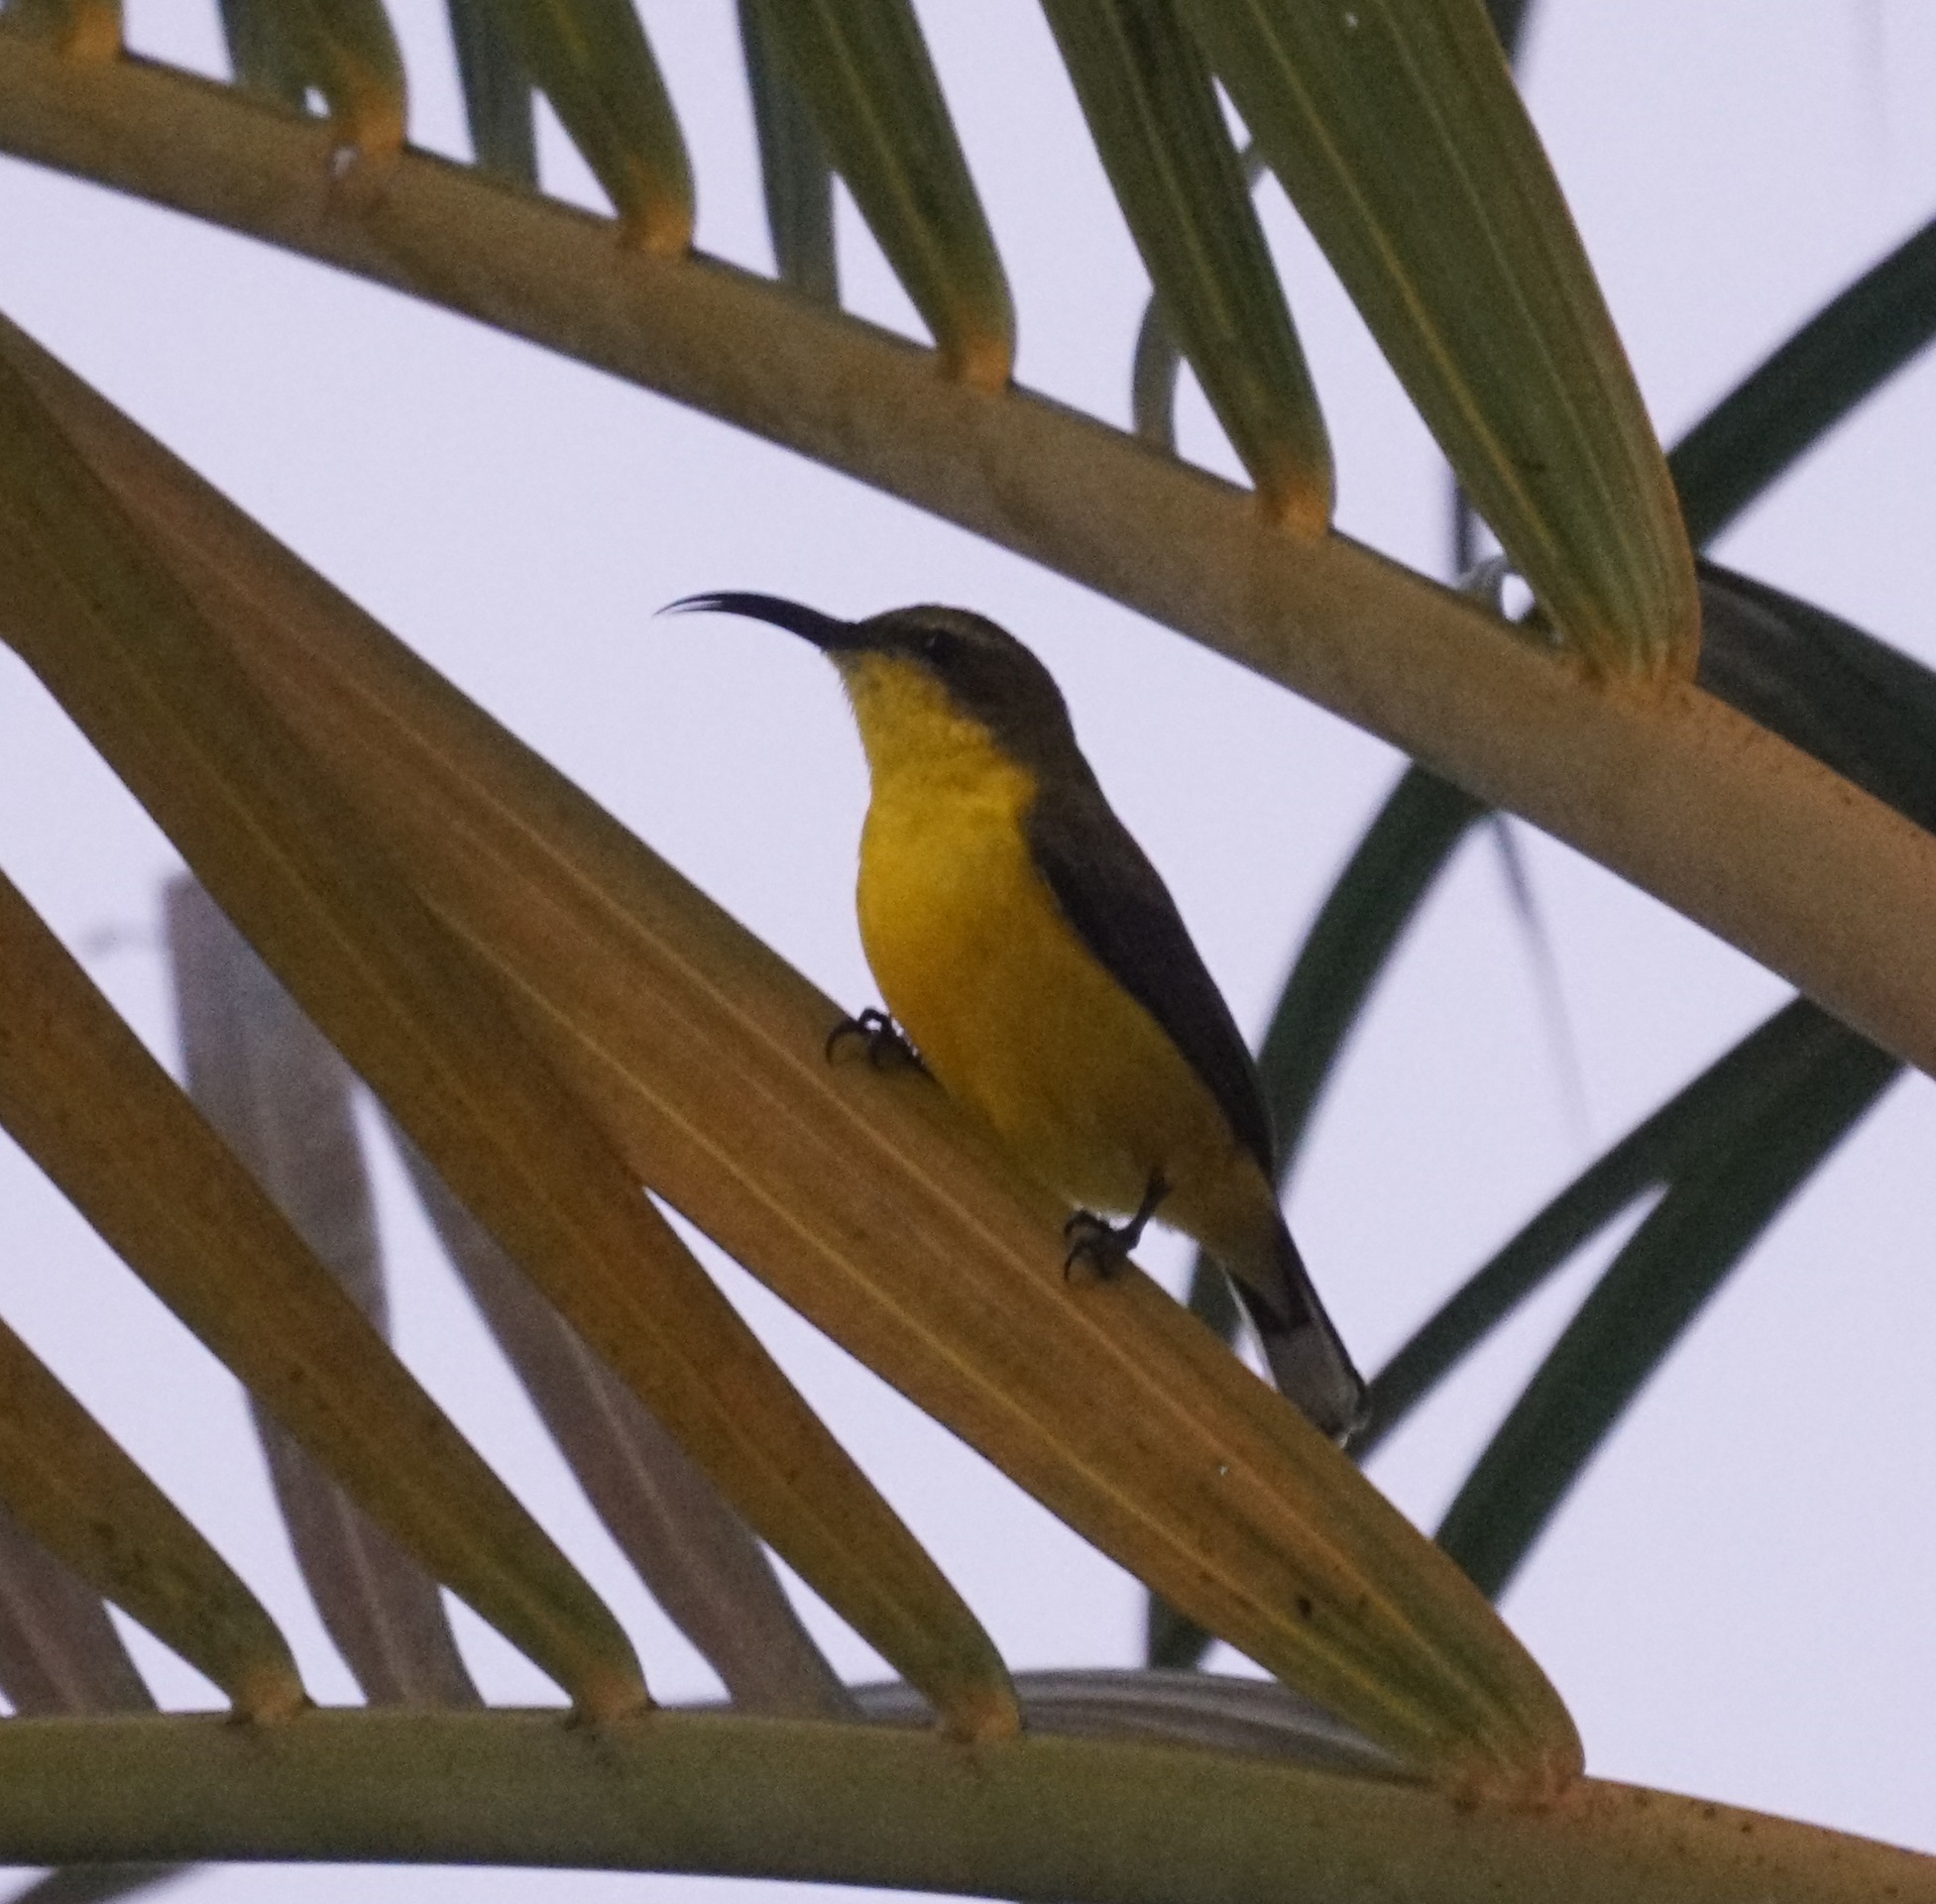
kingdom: Animalia
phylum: Chordata
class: Aves
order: Passeriformes
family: Nectariniidae
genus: Cinnyris
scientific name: Cinnyris
